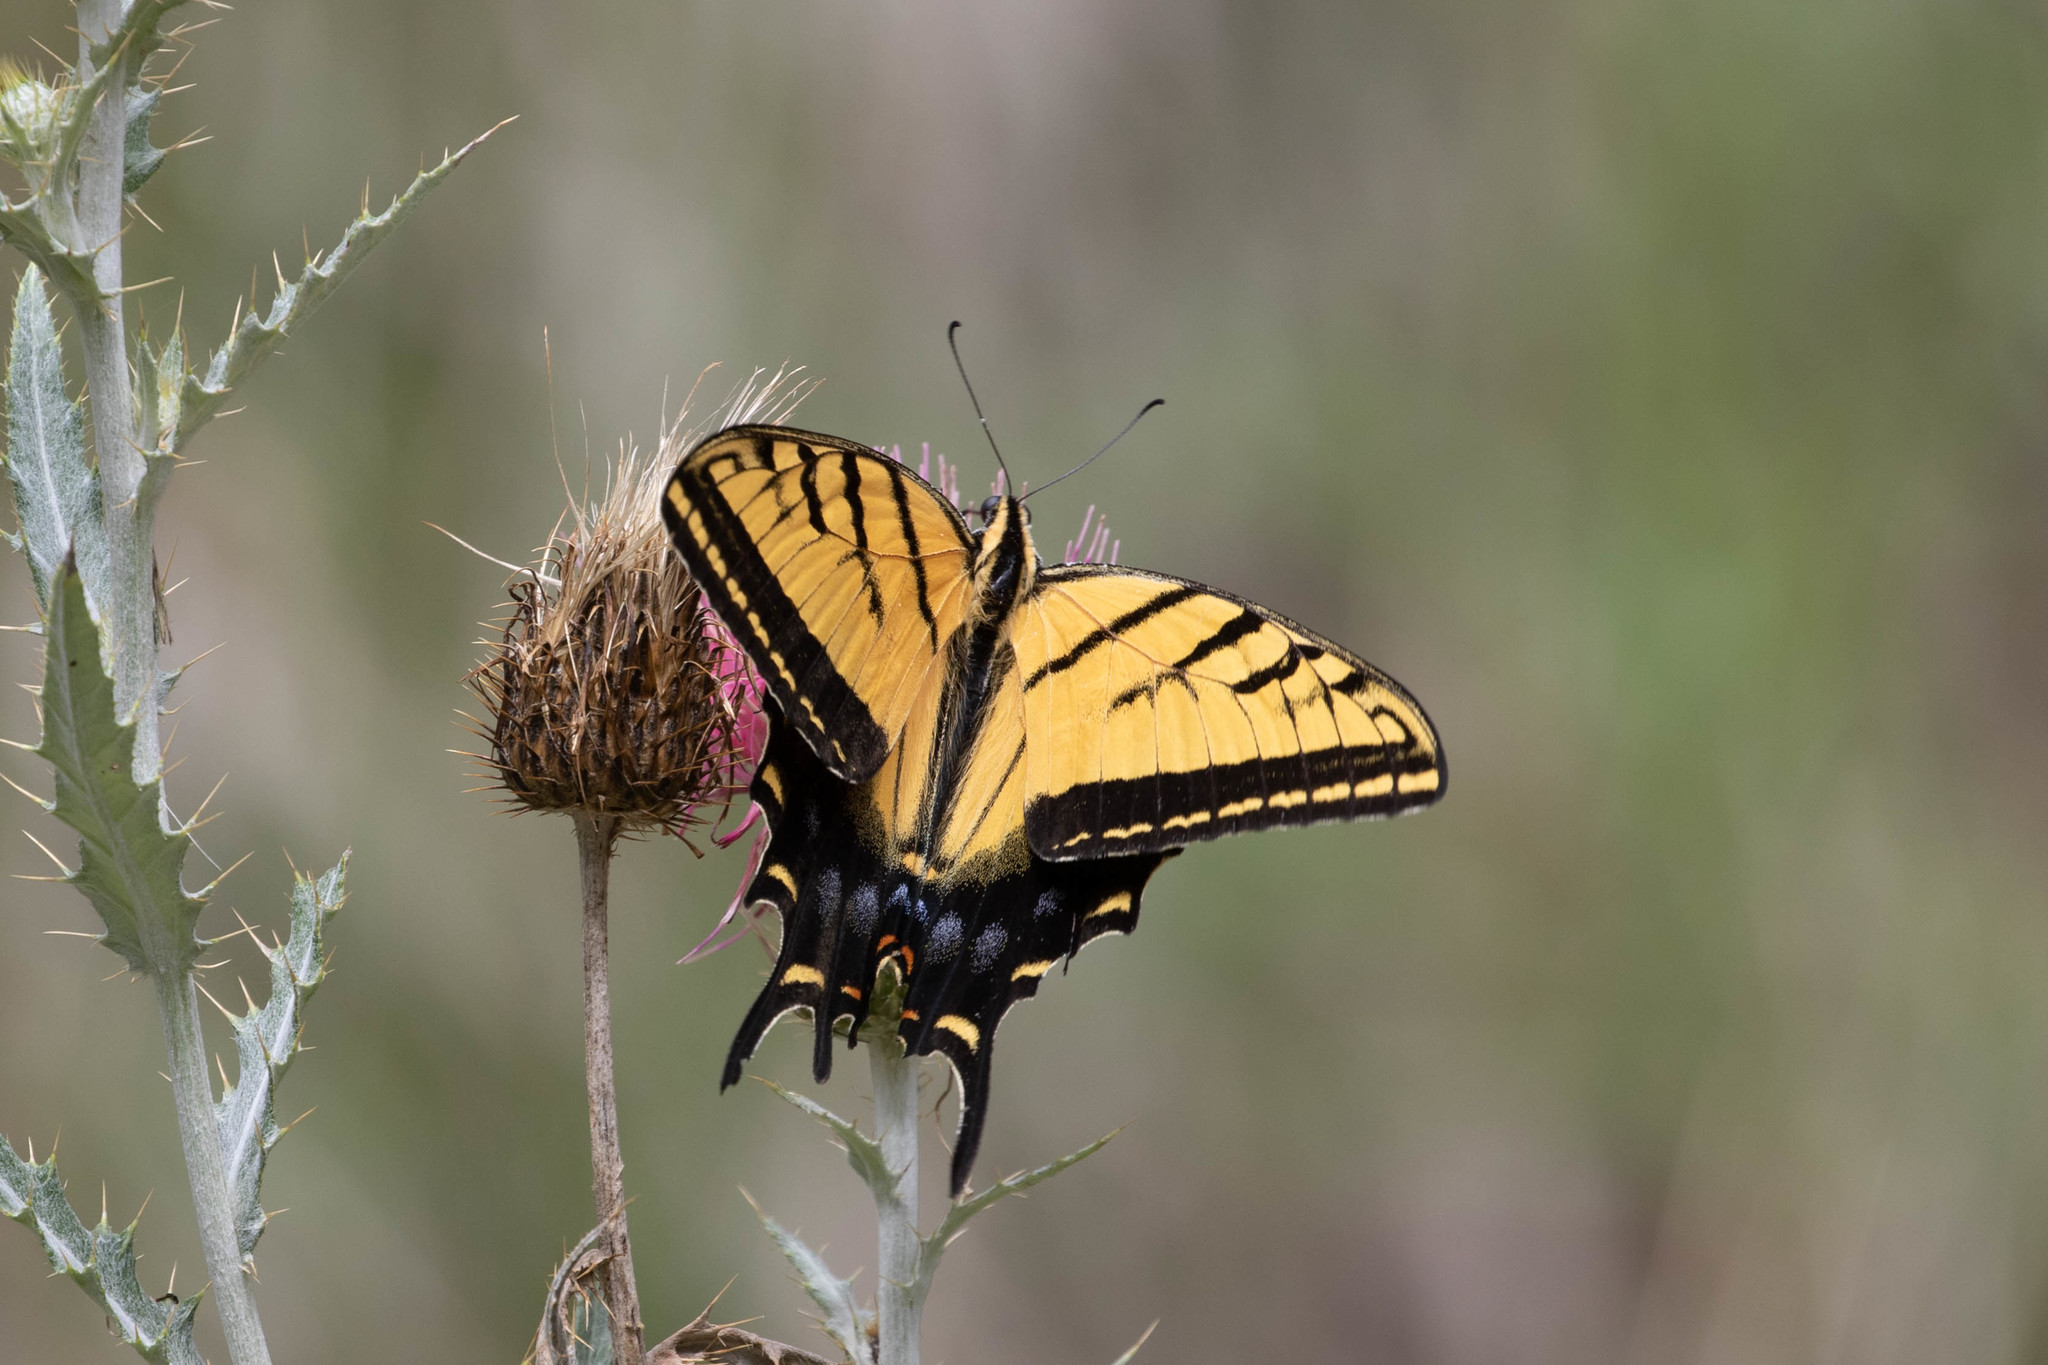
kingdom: Animalia
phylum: Arthropoda
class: Insecta
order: Lepidoptera
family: Papilionidae
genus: Papilio
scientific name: Papilio multicaudata
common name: Two-tailed tiger swallowtail
